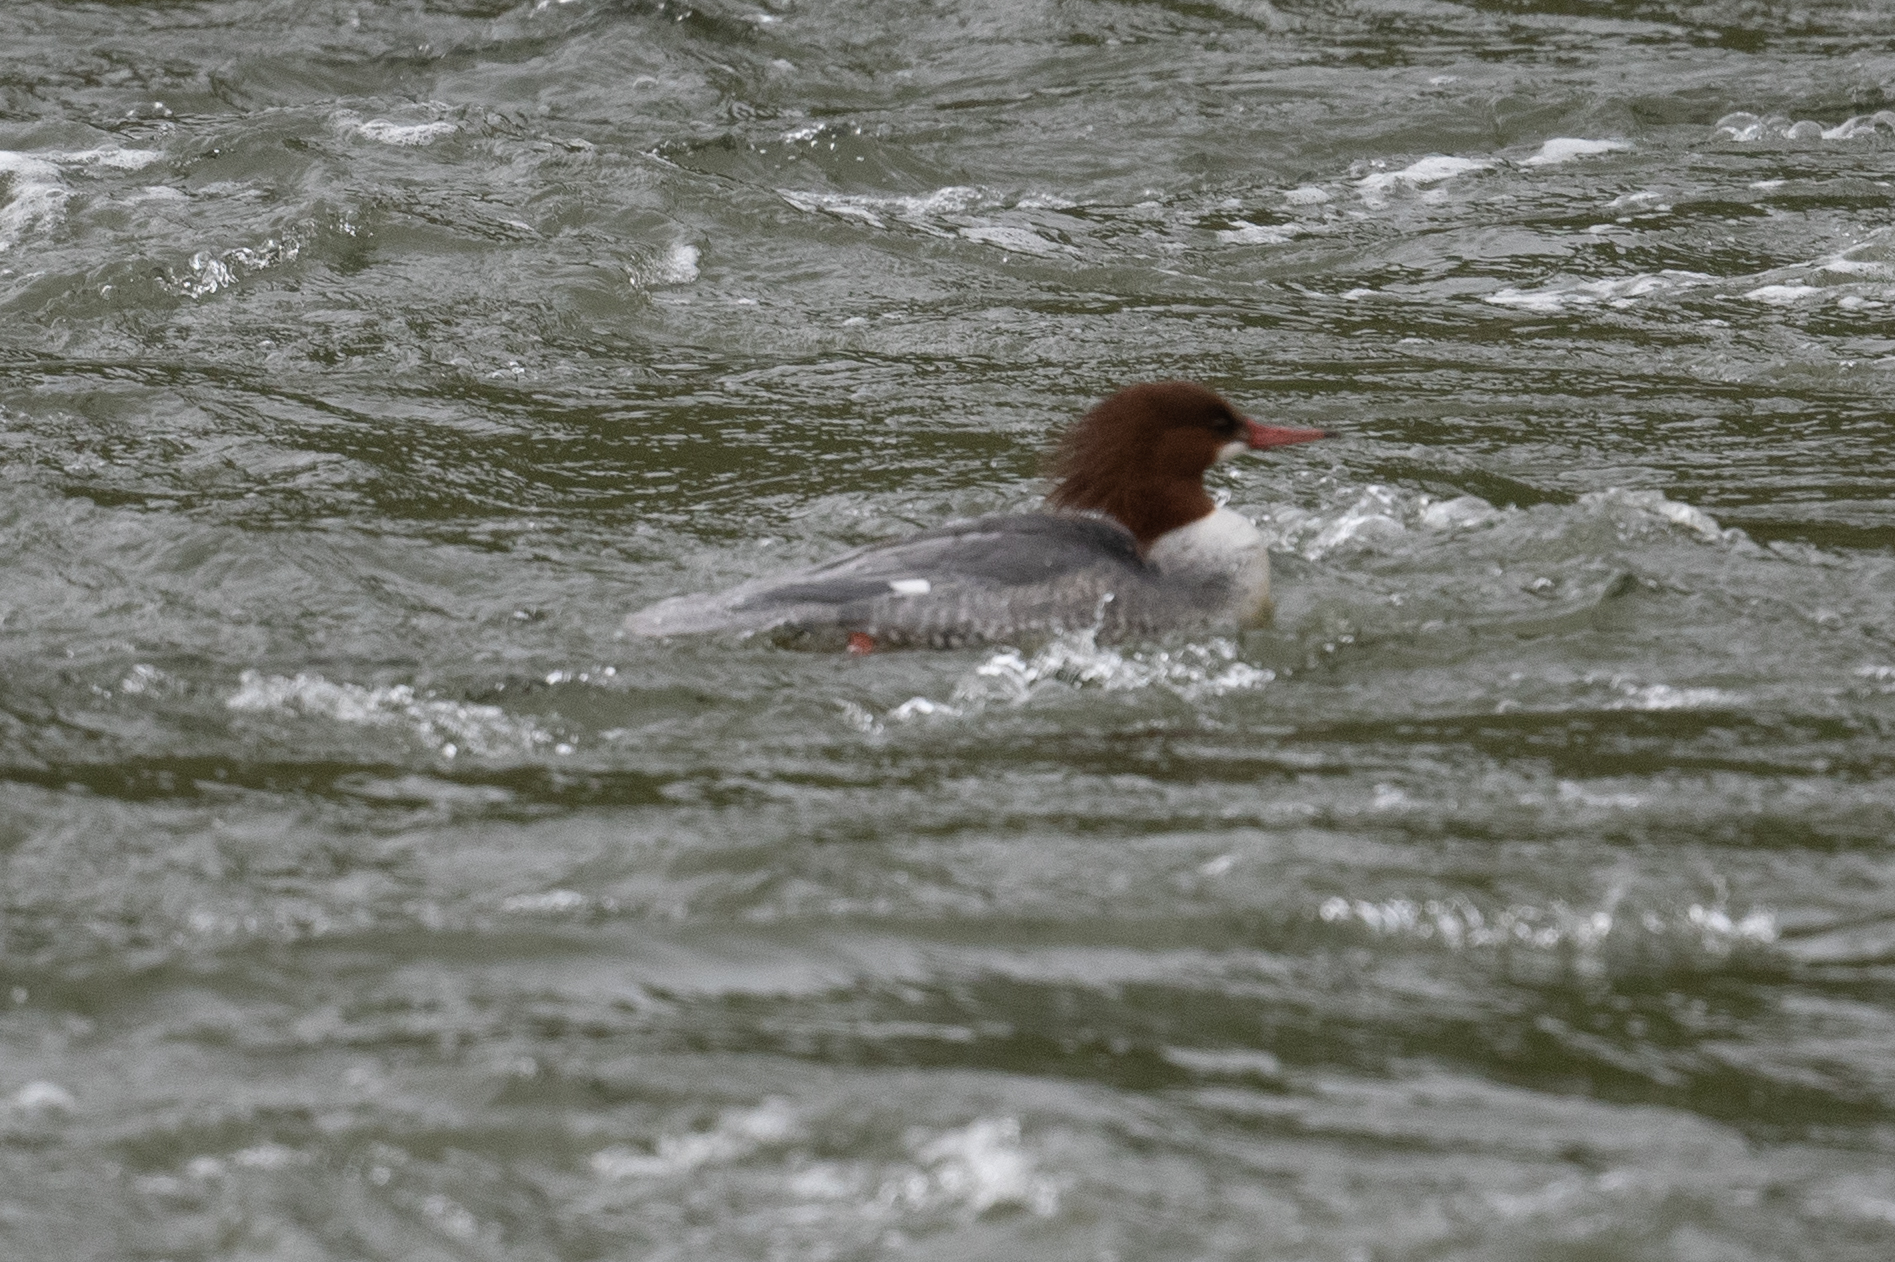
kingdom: Animalia
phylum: Chordata
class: Aves
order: Anseriformes
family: Anatidae
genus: Mergus
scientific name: Mergus merganser
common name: Common merganser
